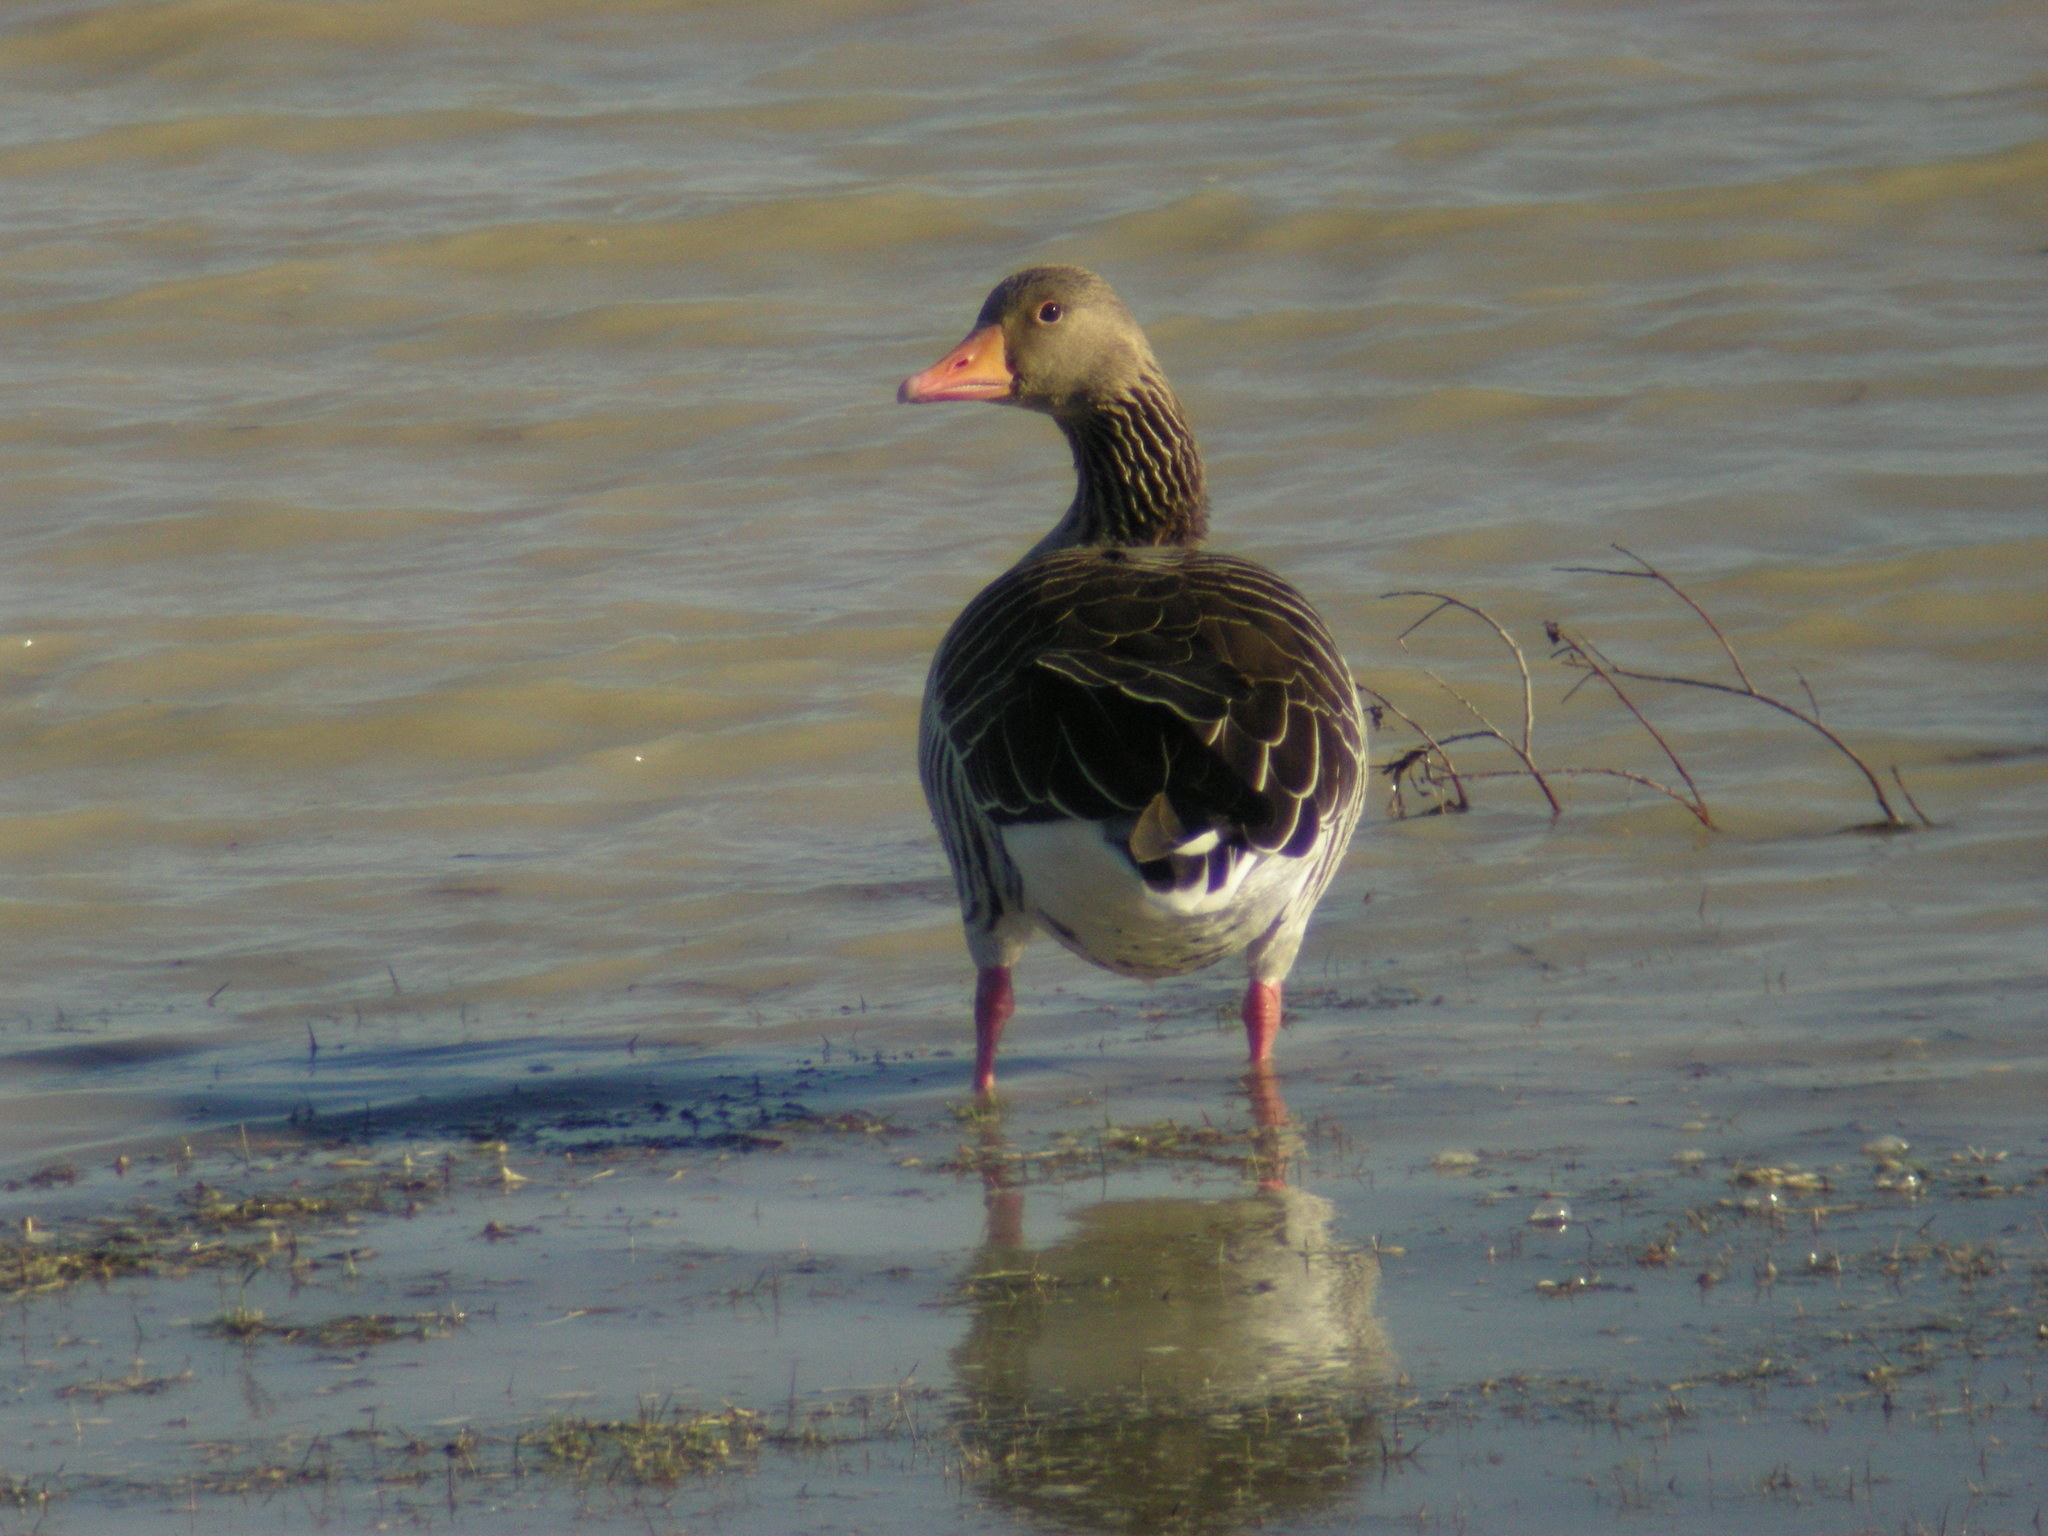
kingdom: Animalia
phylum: Chordata
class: Aves
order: Anseriformes
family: Anatidae
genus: Anser
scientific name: Anser anser
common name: Greylag goose
